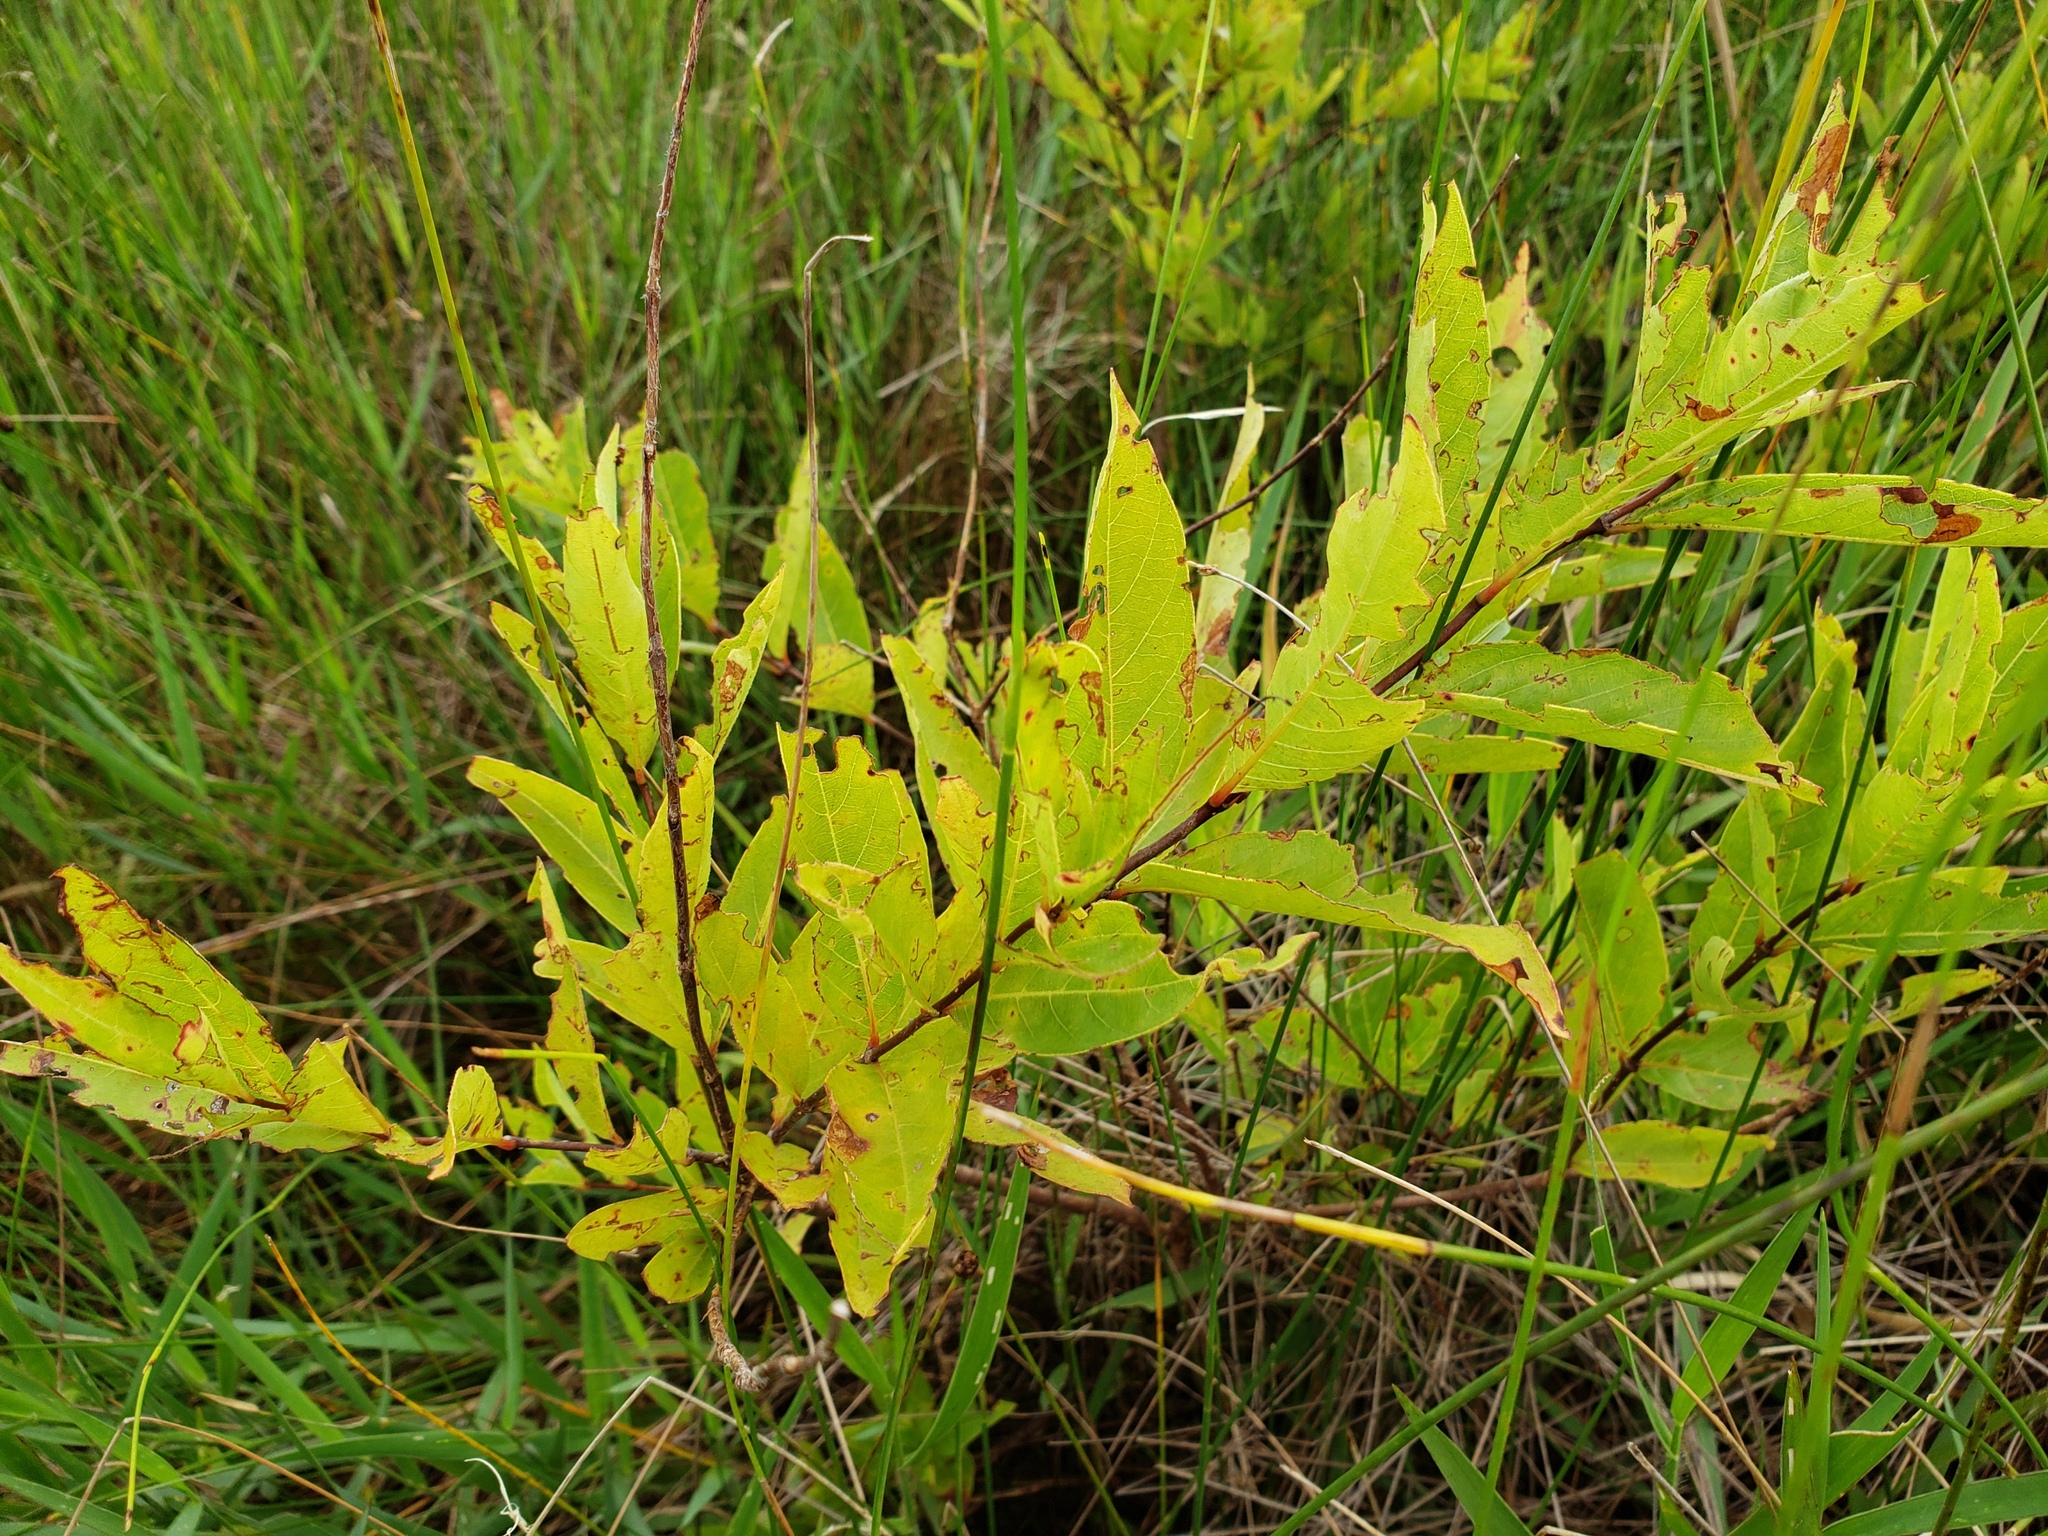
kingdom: Plantae
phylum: Tracheophyta
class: Magnoliopsida
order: Gentianales
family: Rubiaceae
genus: Cephalanthus
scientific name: Cephalanthus occidentalis
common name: Button-willow
